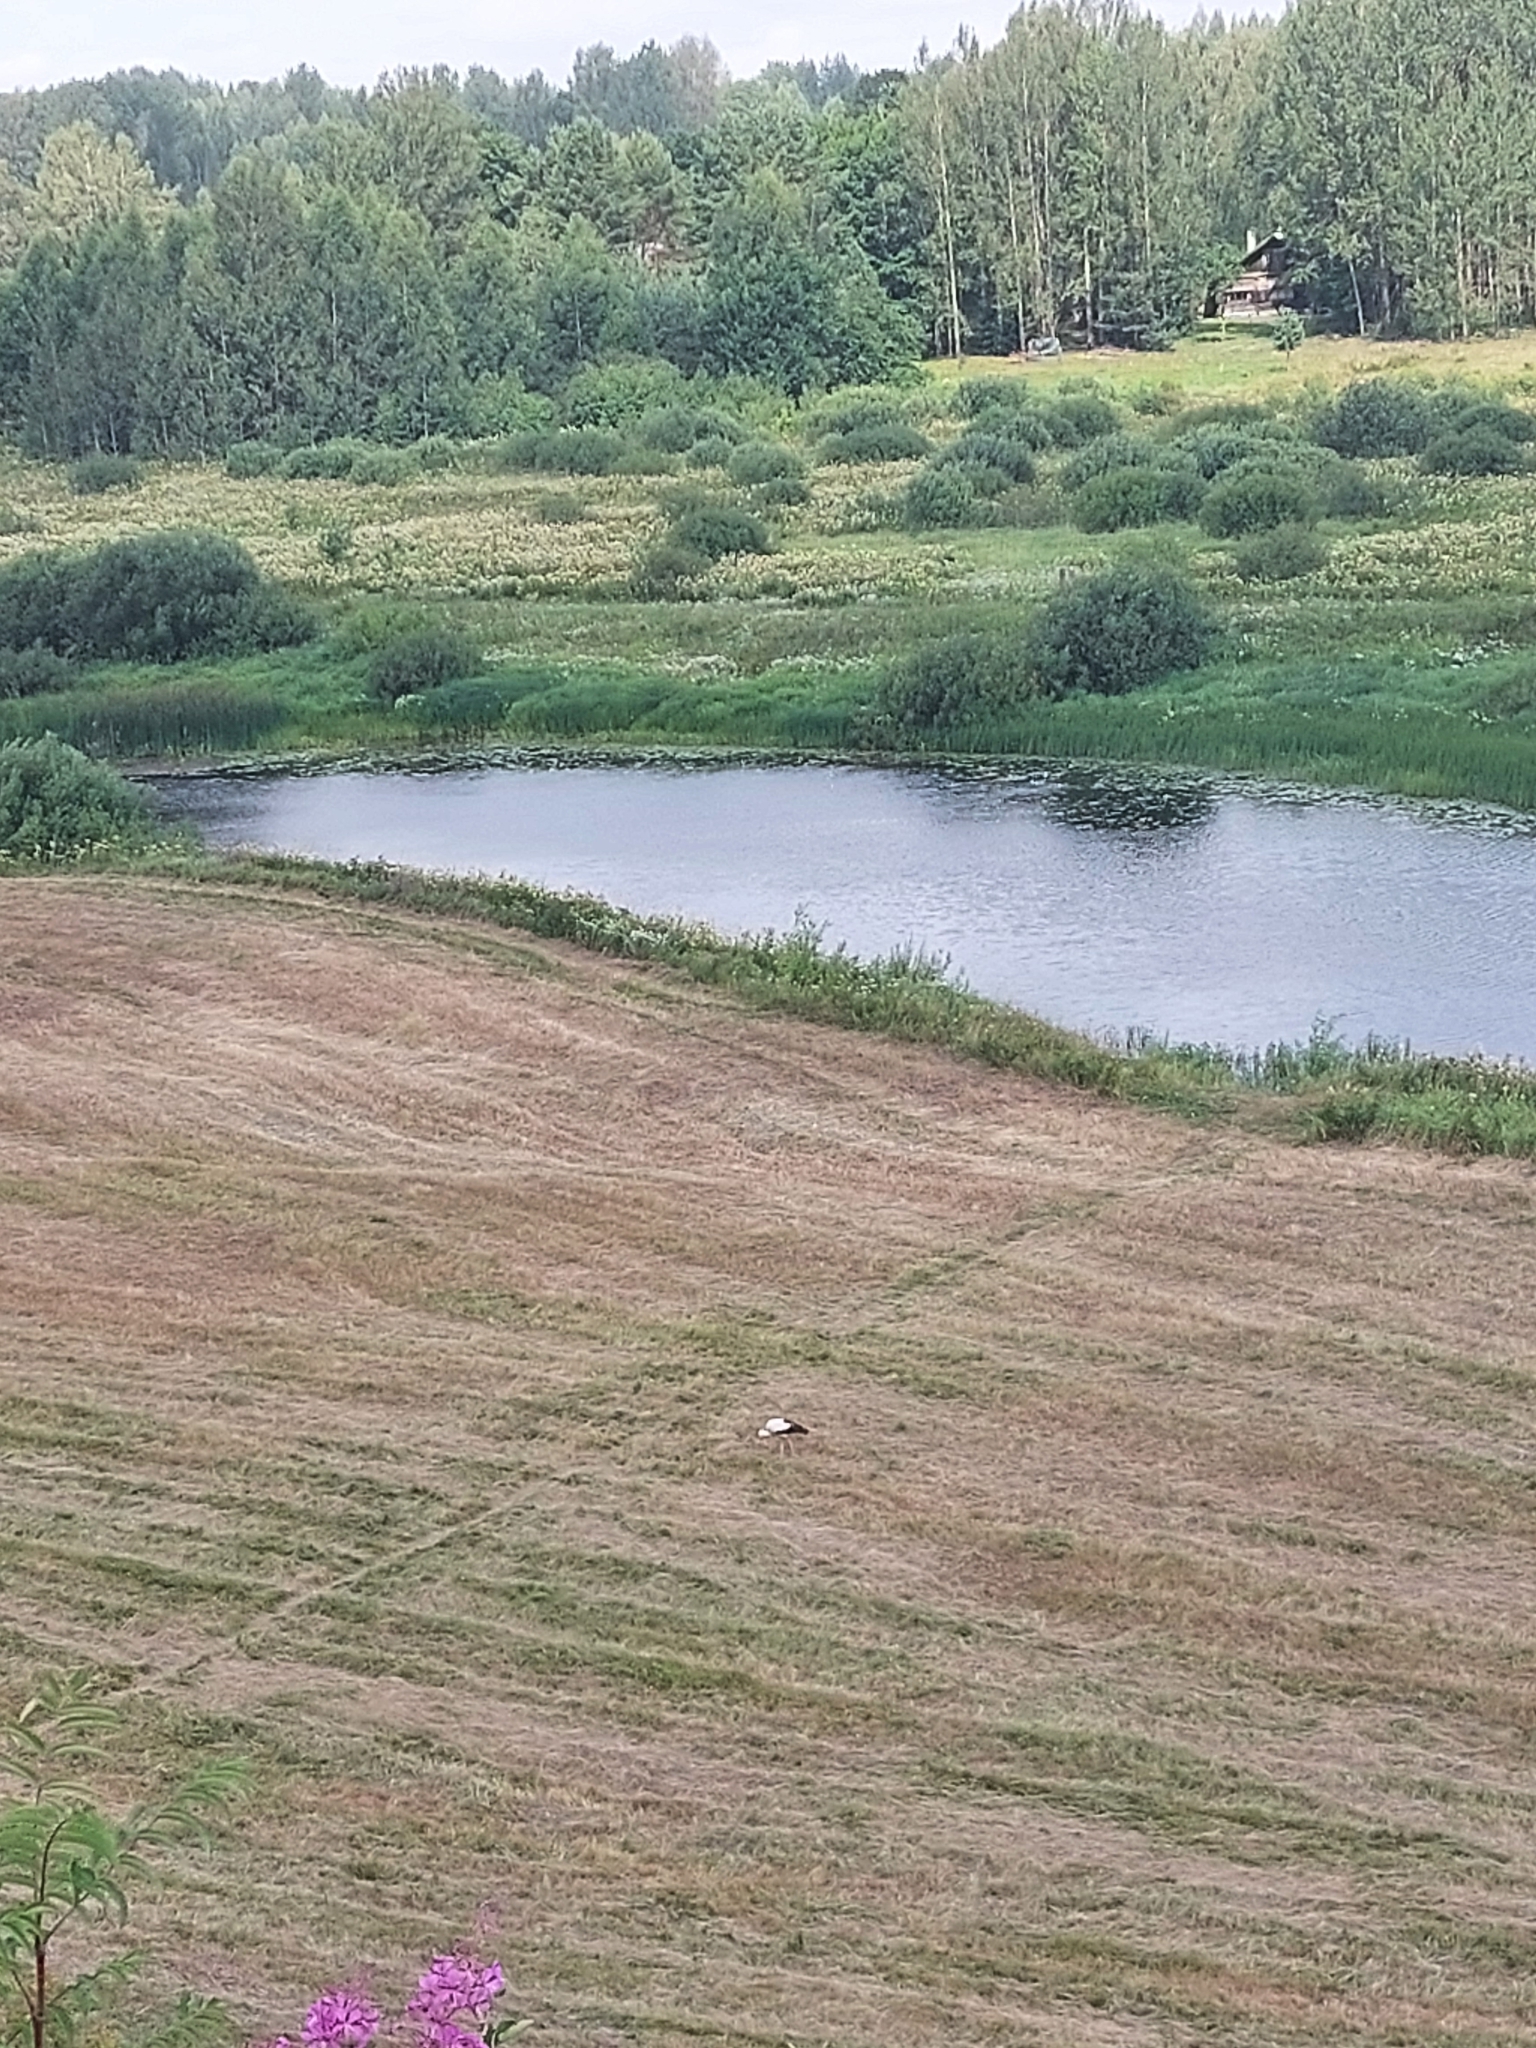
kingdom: Animalia
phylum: Chordata
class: Aves
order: Ciconiiformes
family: Ciconiidae
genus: Ciconia
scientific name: Ciconia ciconia
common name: White stork
